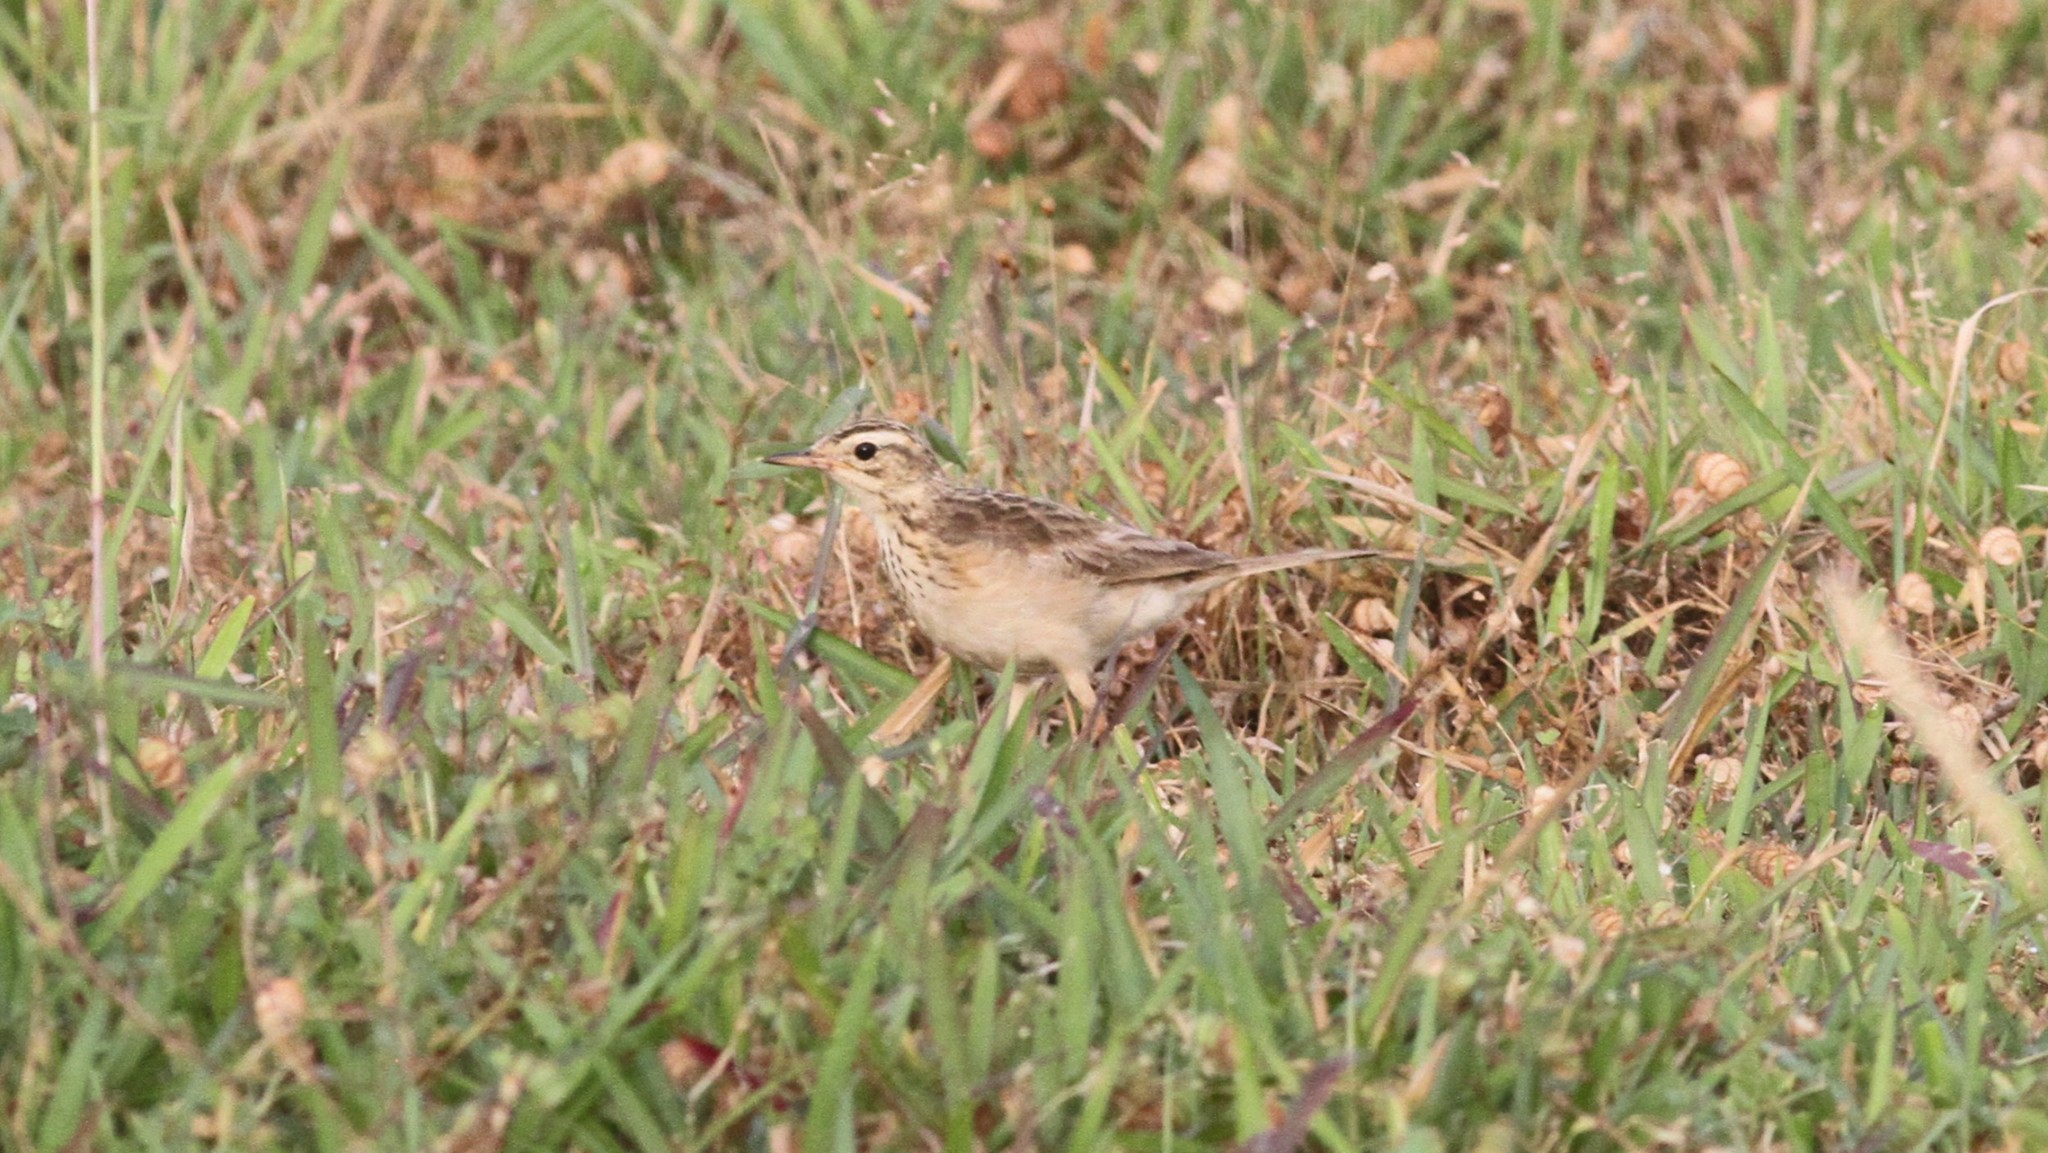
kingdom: Animalia
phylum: Chordata
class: Aves
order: Passeriformes
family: Motacillidae
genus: Anthus
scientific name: Anthus rufulus
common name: Paddyfield pipit
